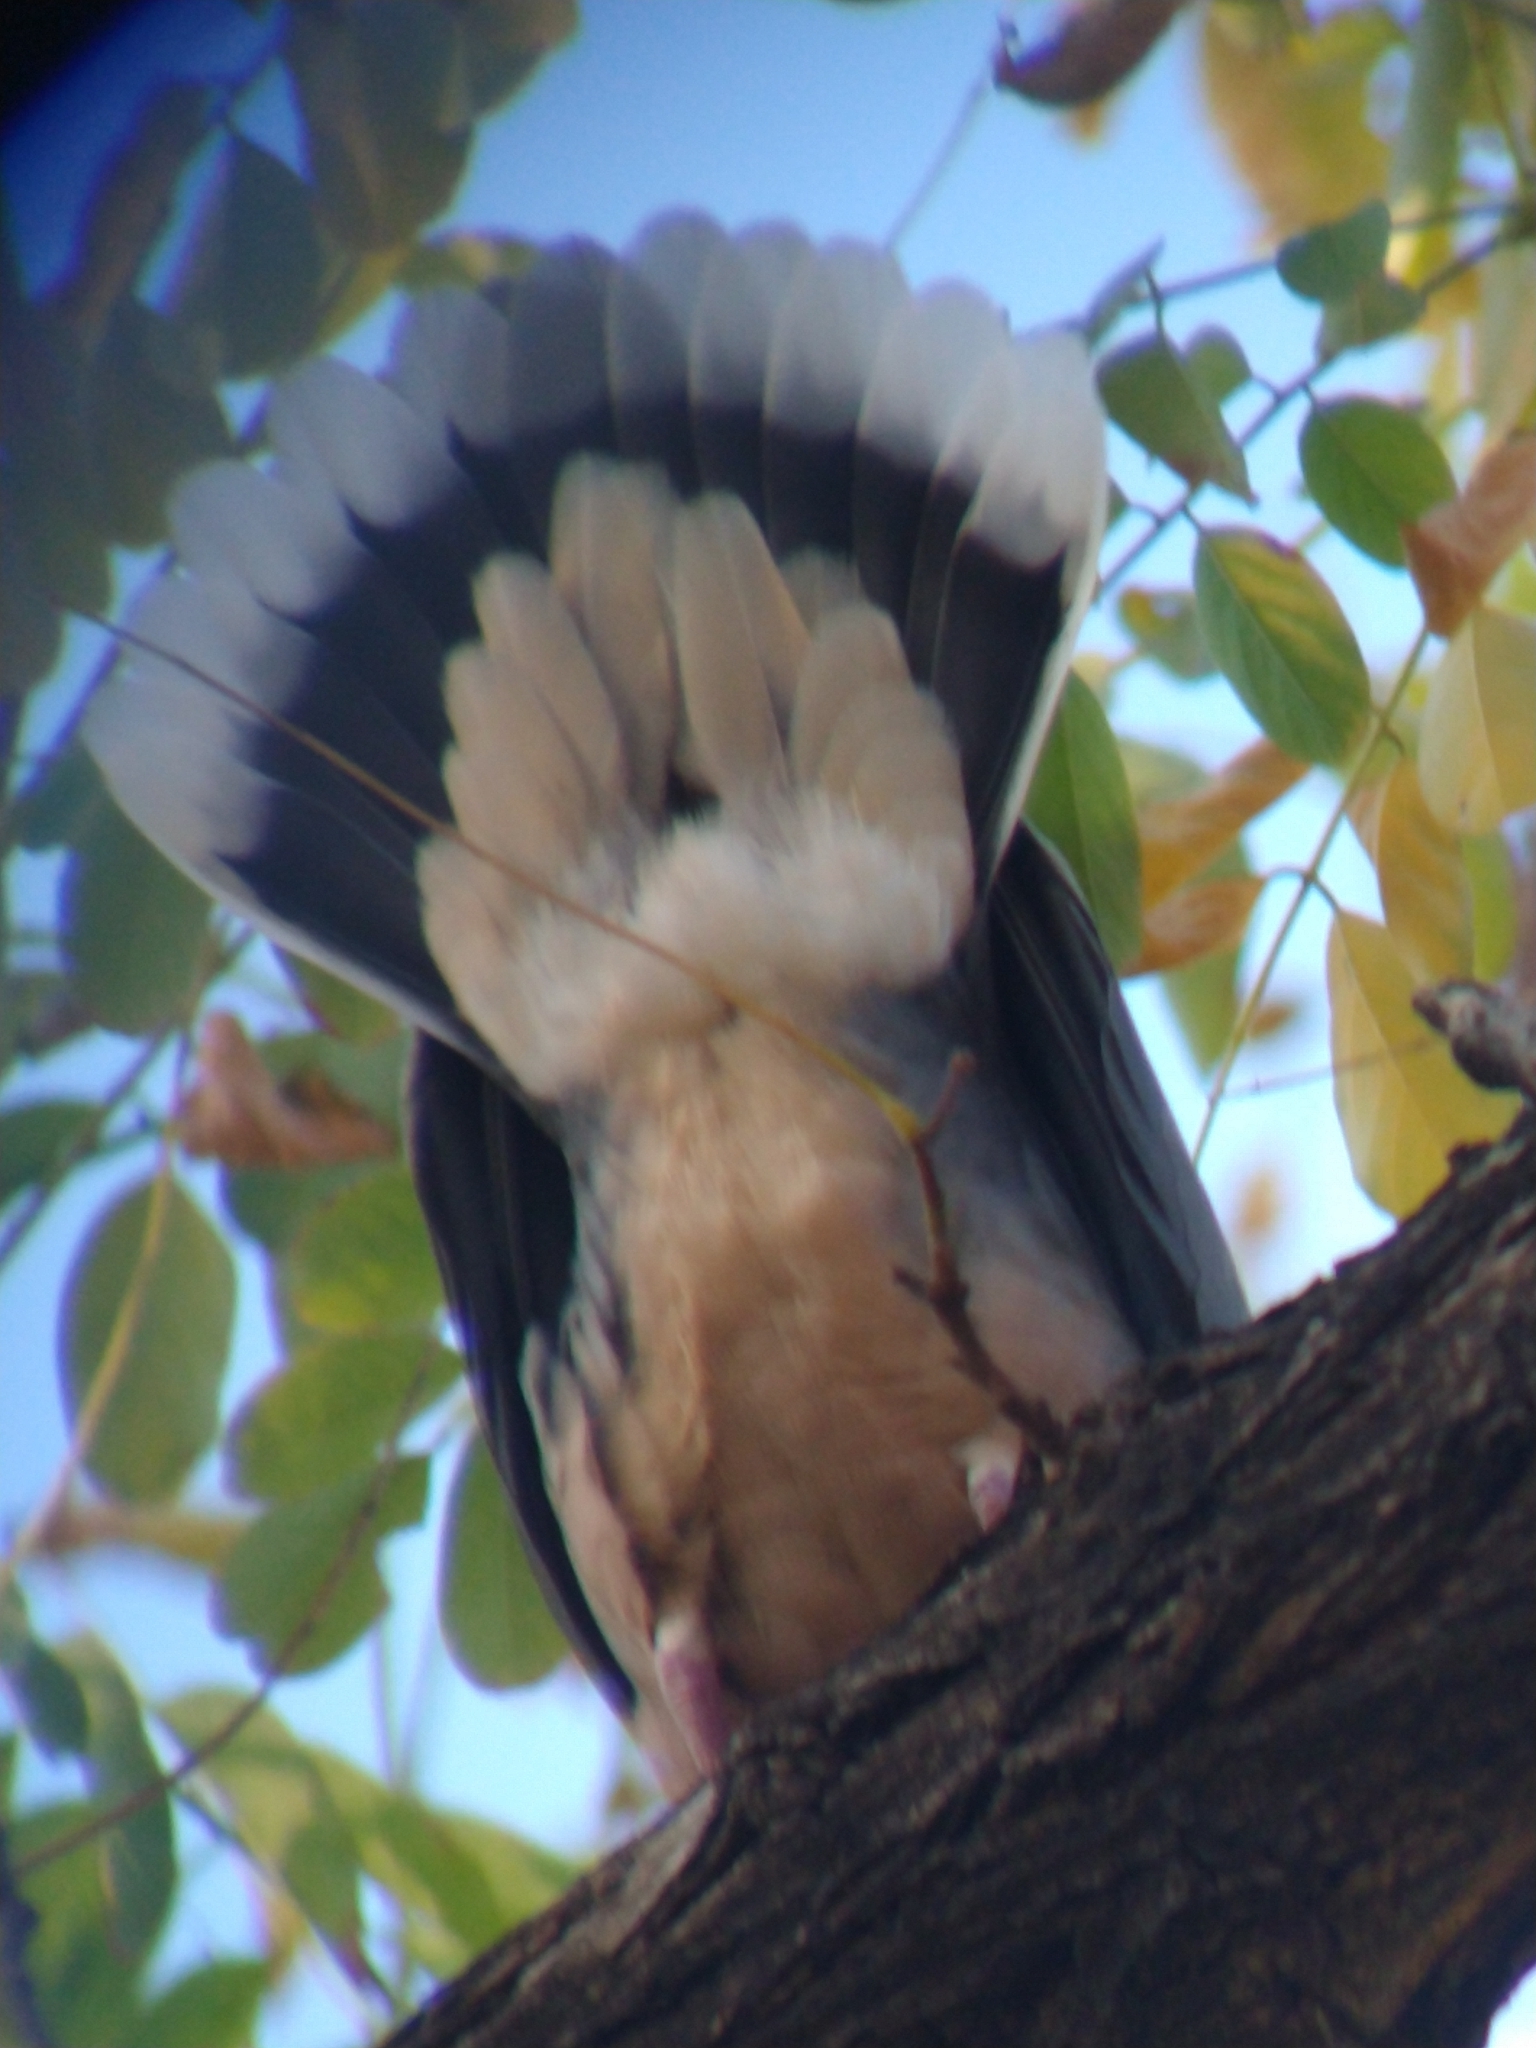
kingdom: Animalia
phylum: Chordata
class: Aves
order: Columbiformes
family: Columbidae
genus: Zenaida
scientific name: Zenaida auriculata
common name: Eared dove
